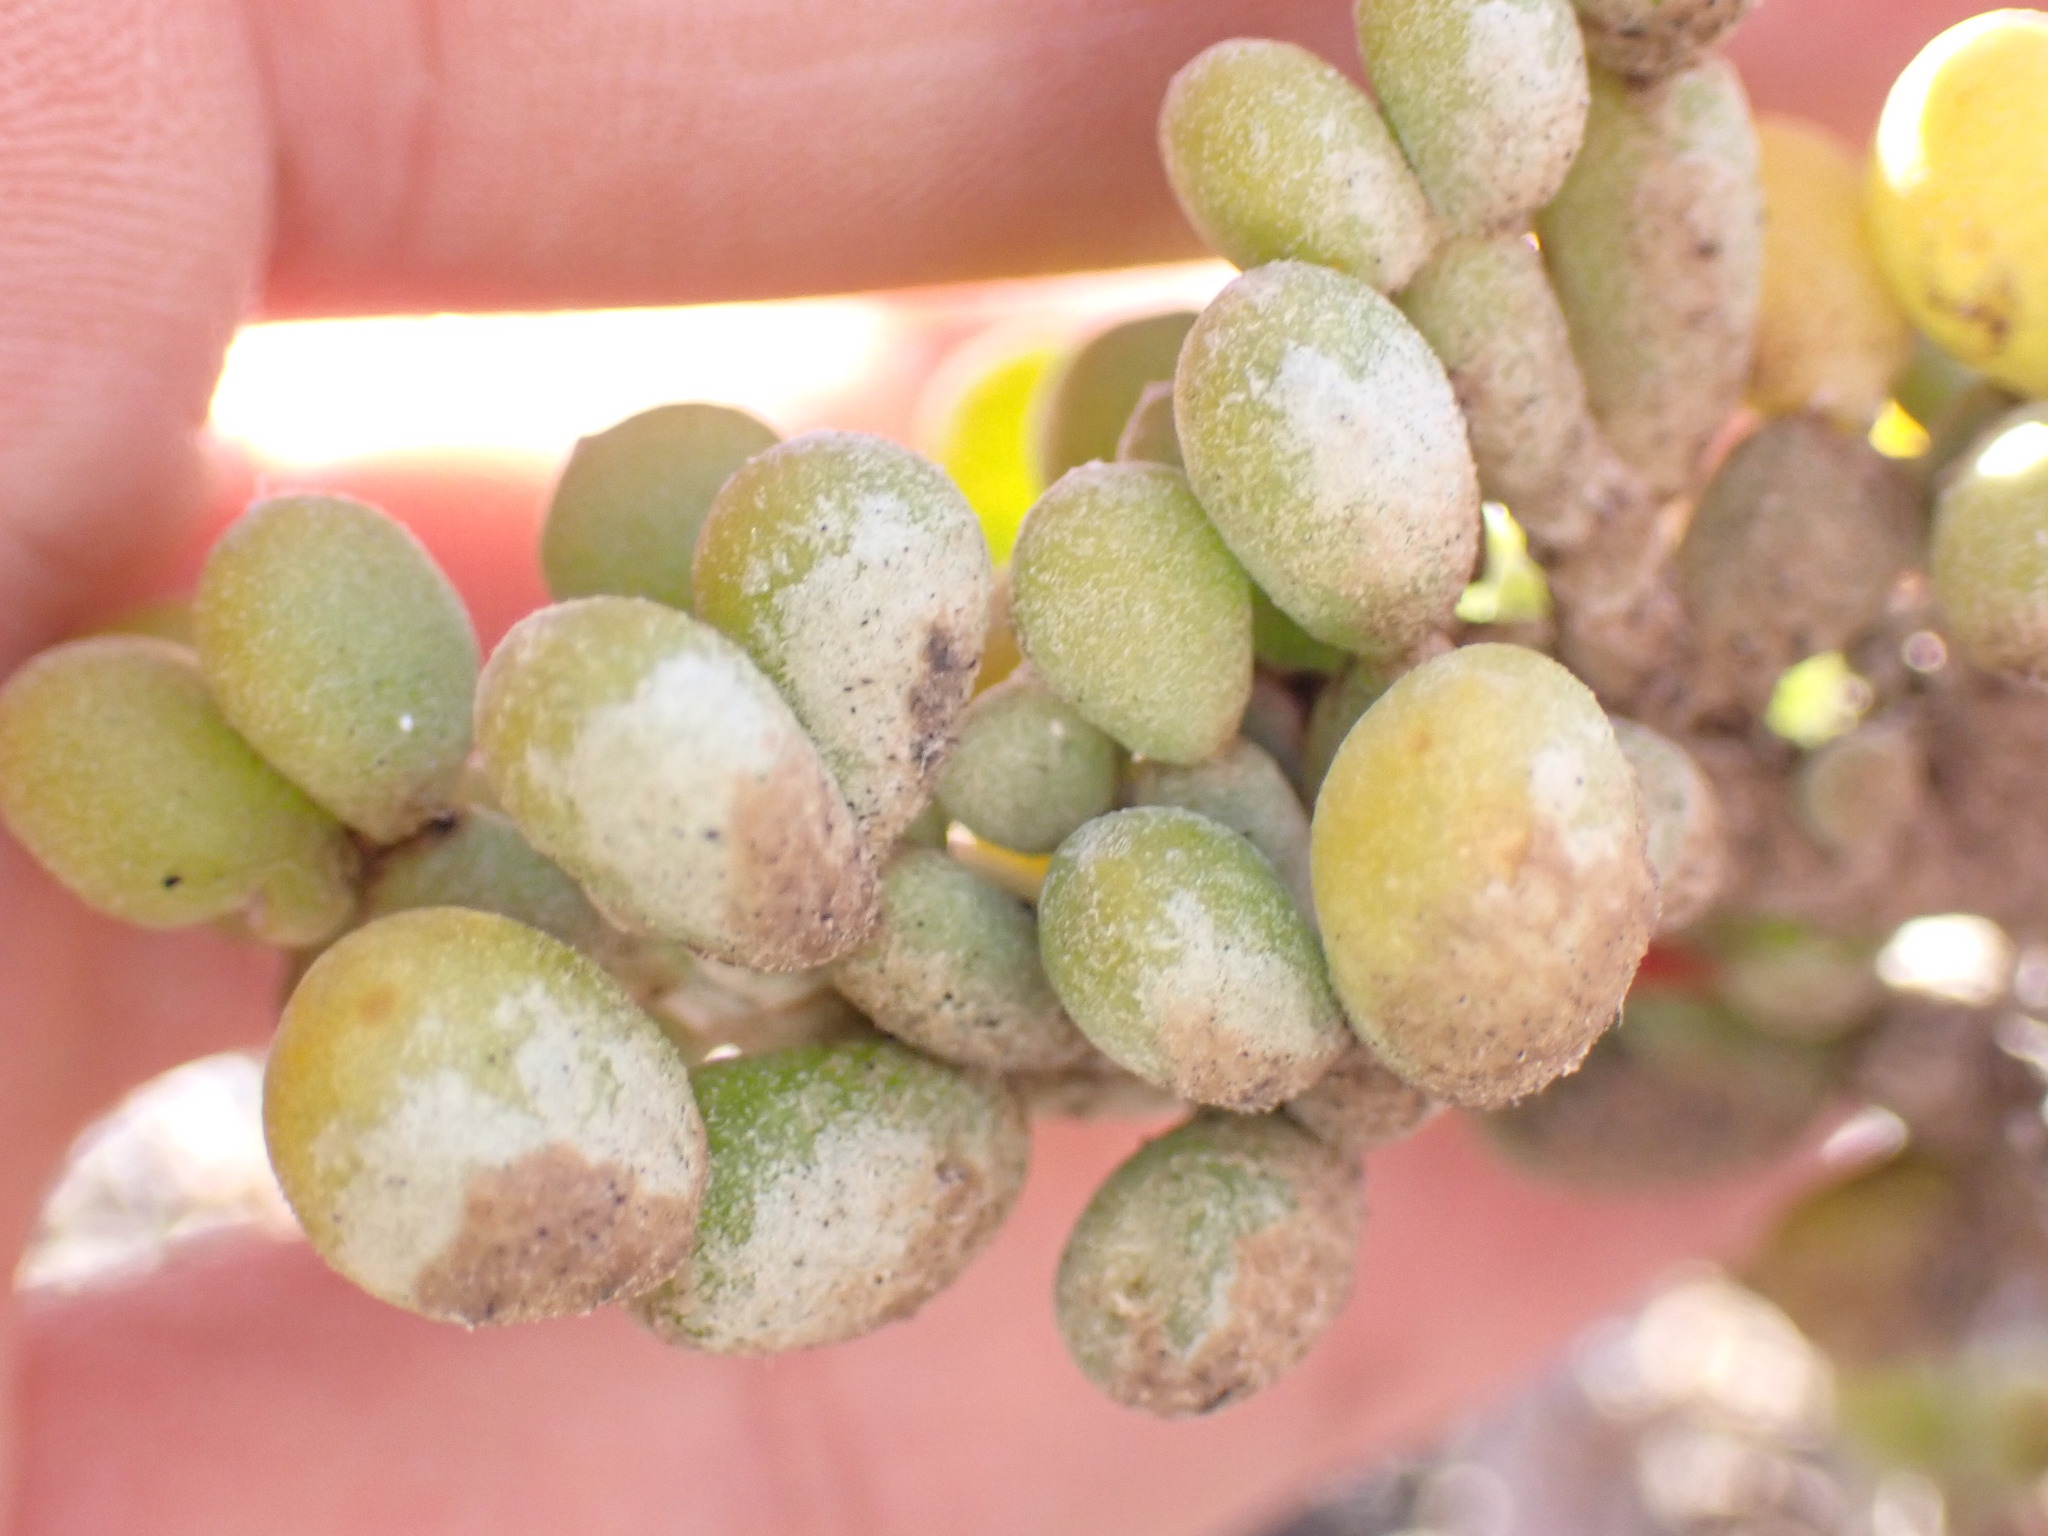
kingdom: Plantae
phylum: Tracheophyta
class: Magnoliopsida
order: Zygophyllales
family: Zygophyllaceae
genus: Tetraena
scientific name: Tetraena fontanesii
